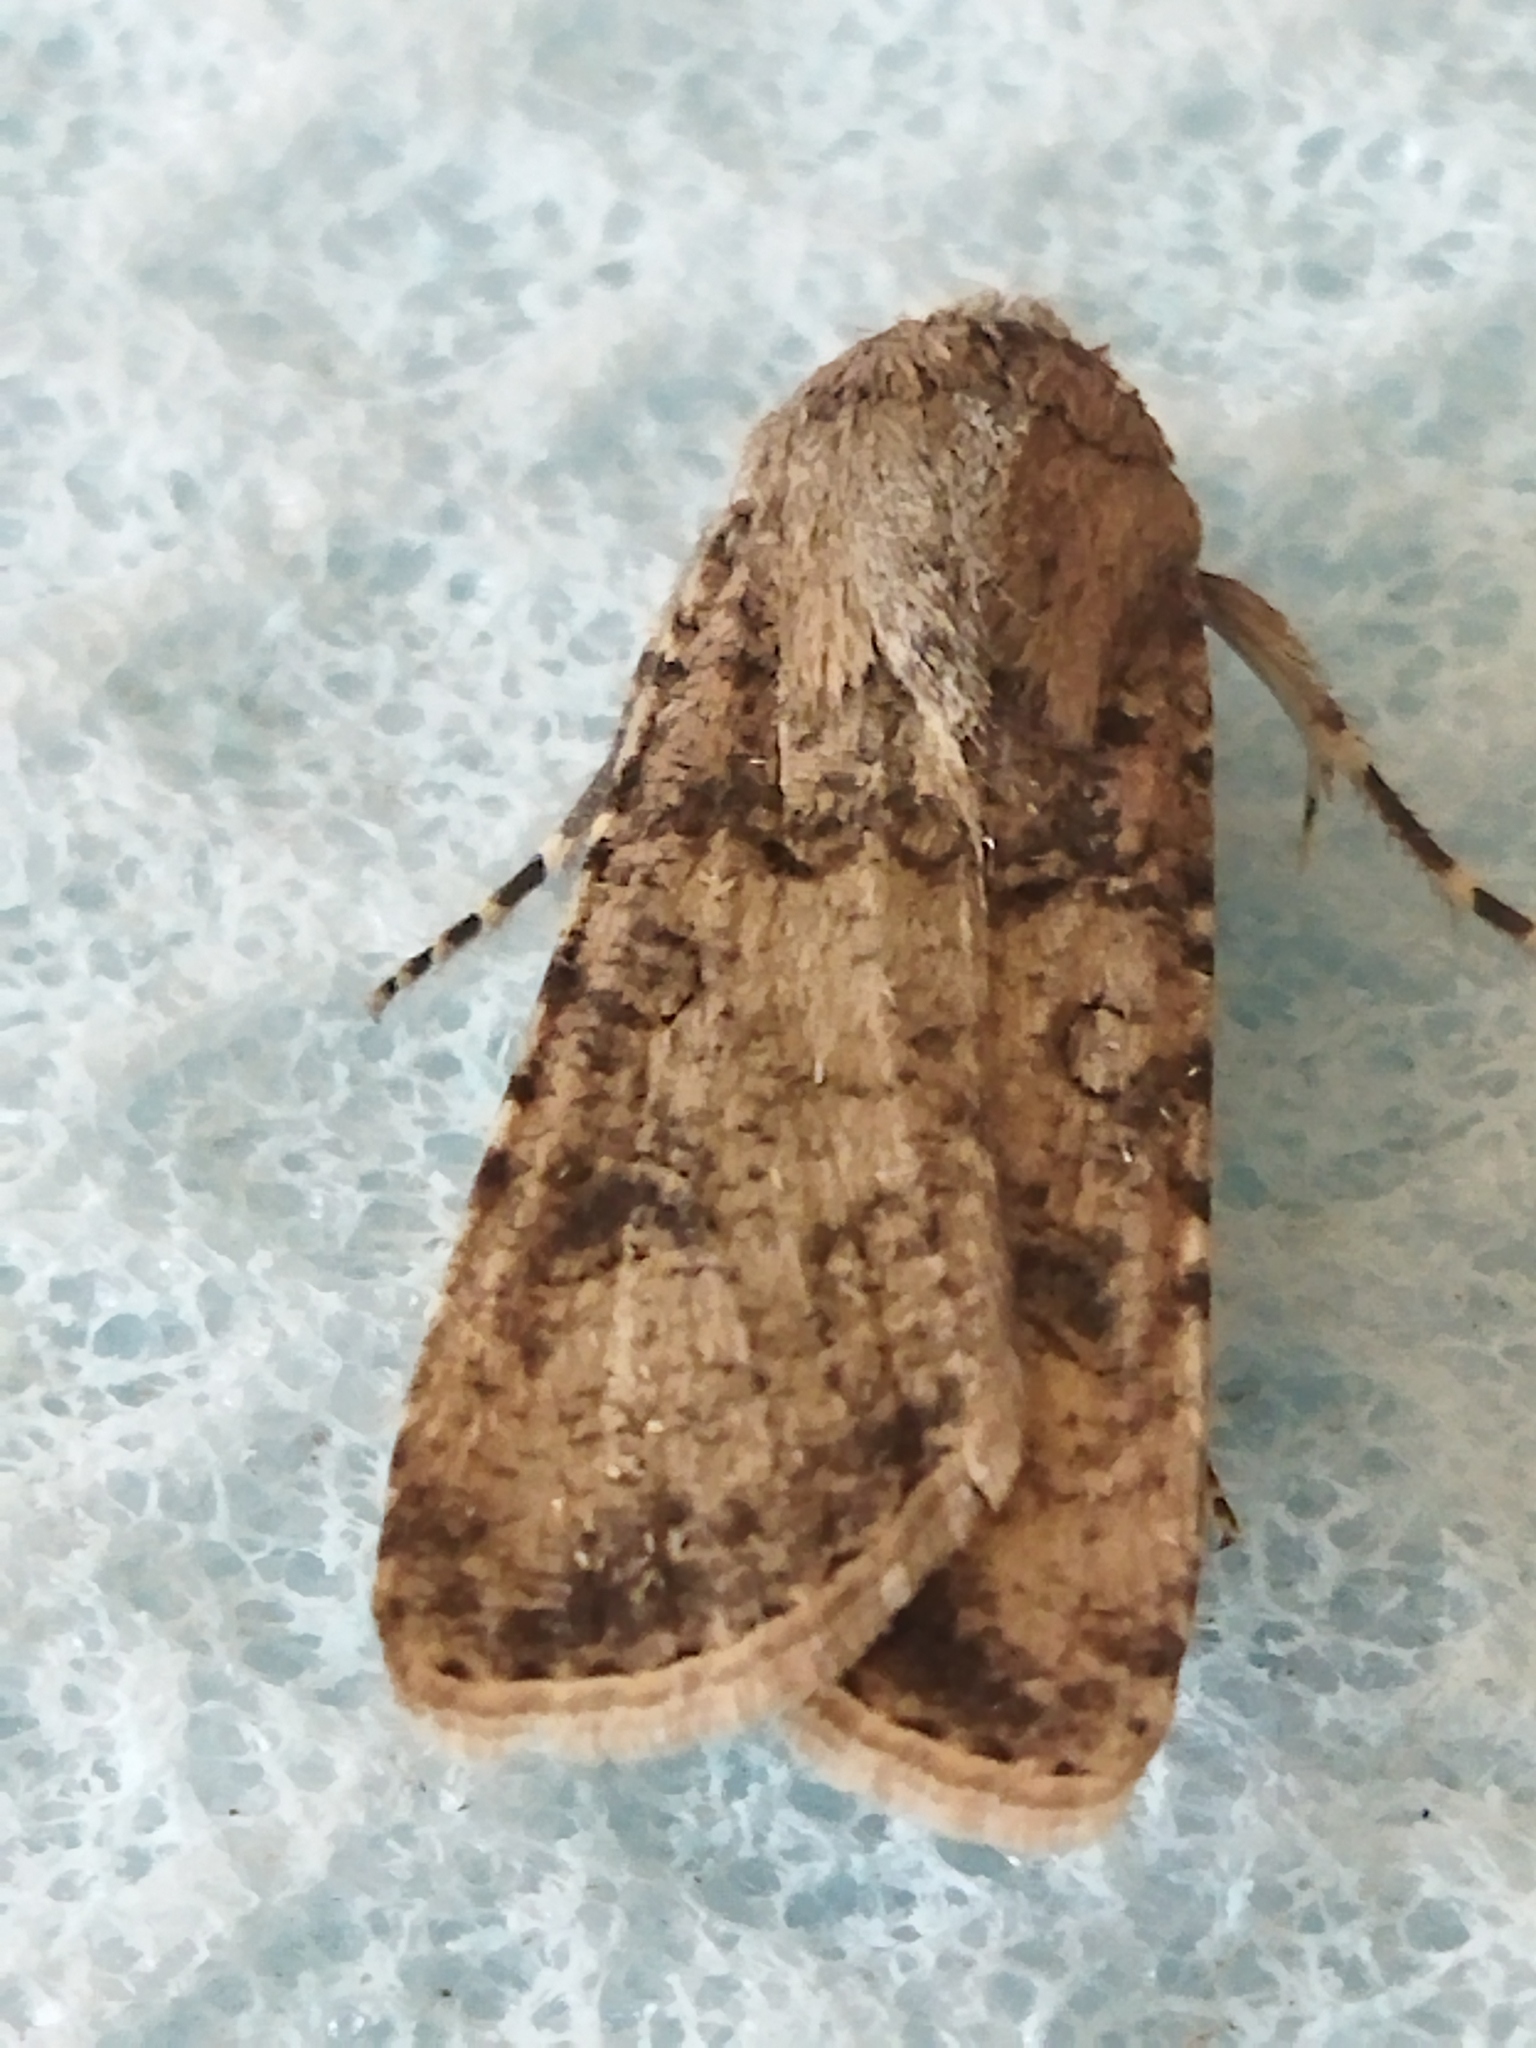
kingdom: Animalia
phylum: Arthropoda
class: Insecta
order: Lepidoptera
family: Noctuidae
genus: Agrotis
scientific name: Agrotis segetum
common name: Turnip moth
